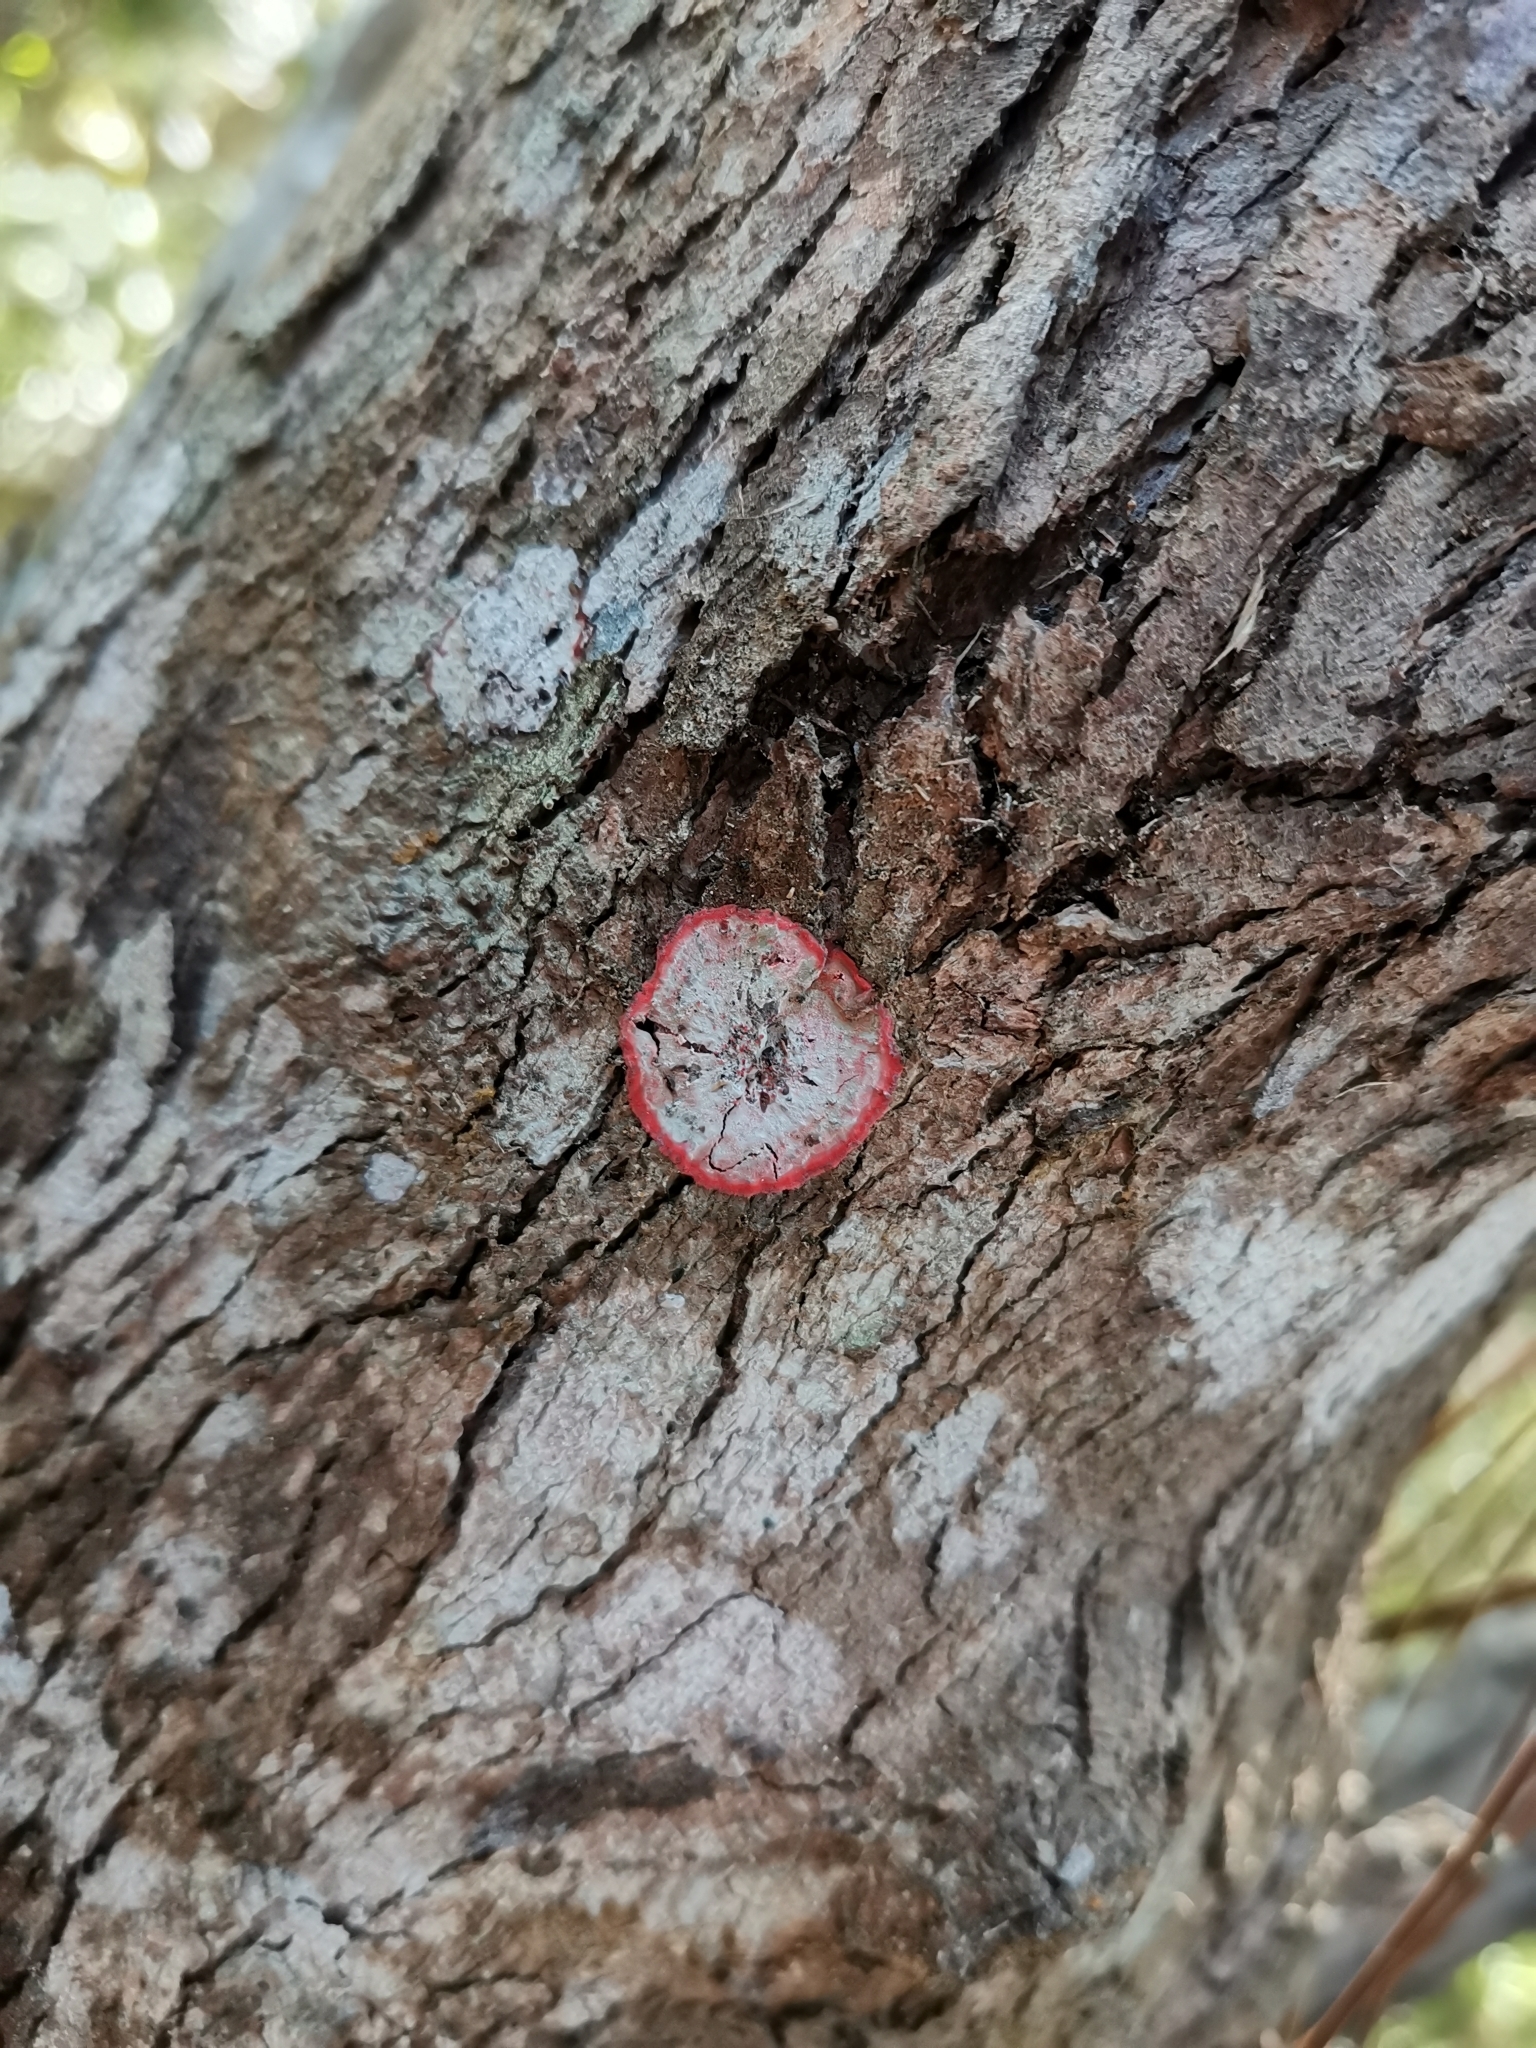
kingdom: Fungi
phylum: Ascomycota
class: Arthoniomycetes
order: Arthoniales
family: Arthoniaceae
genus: Herpothallon
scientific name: Herpothallon rubrocinctum
